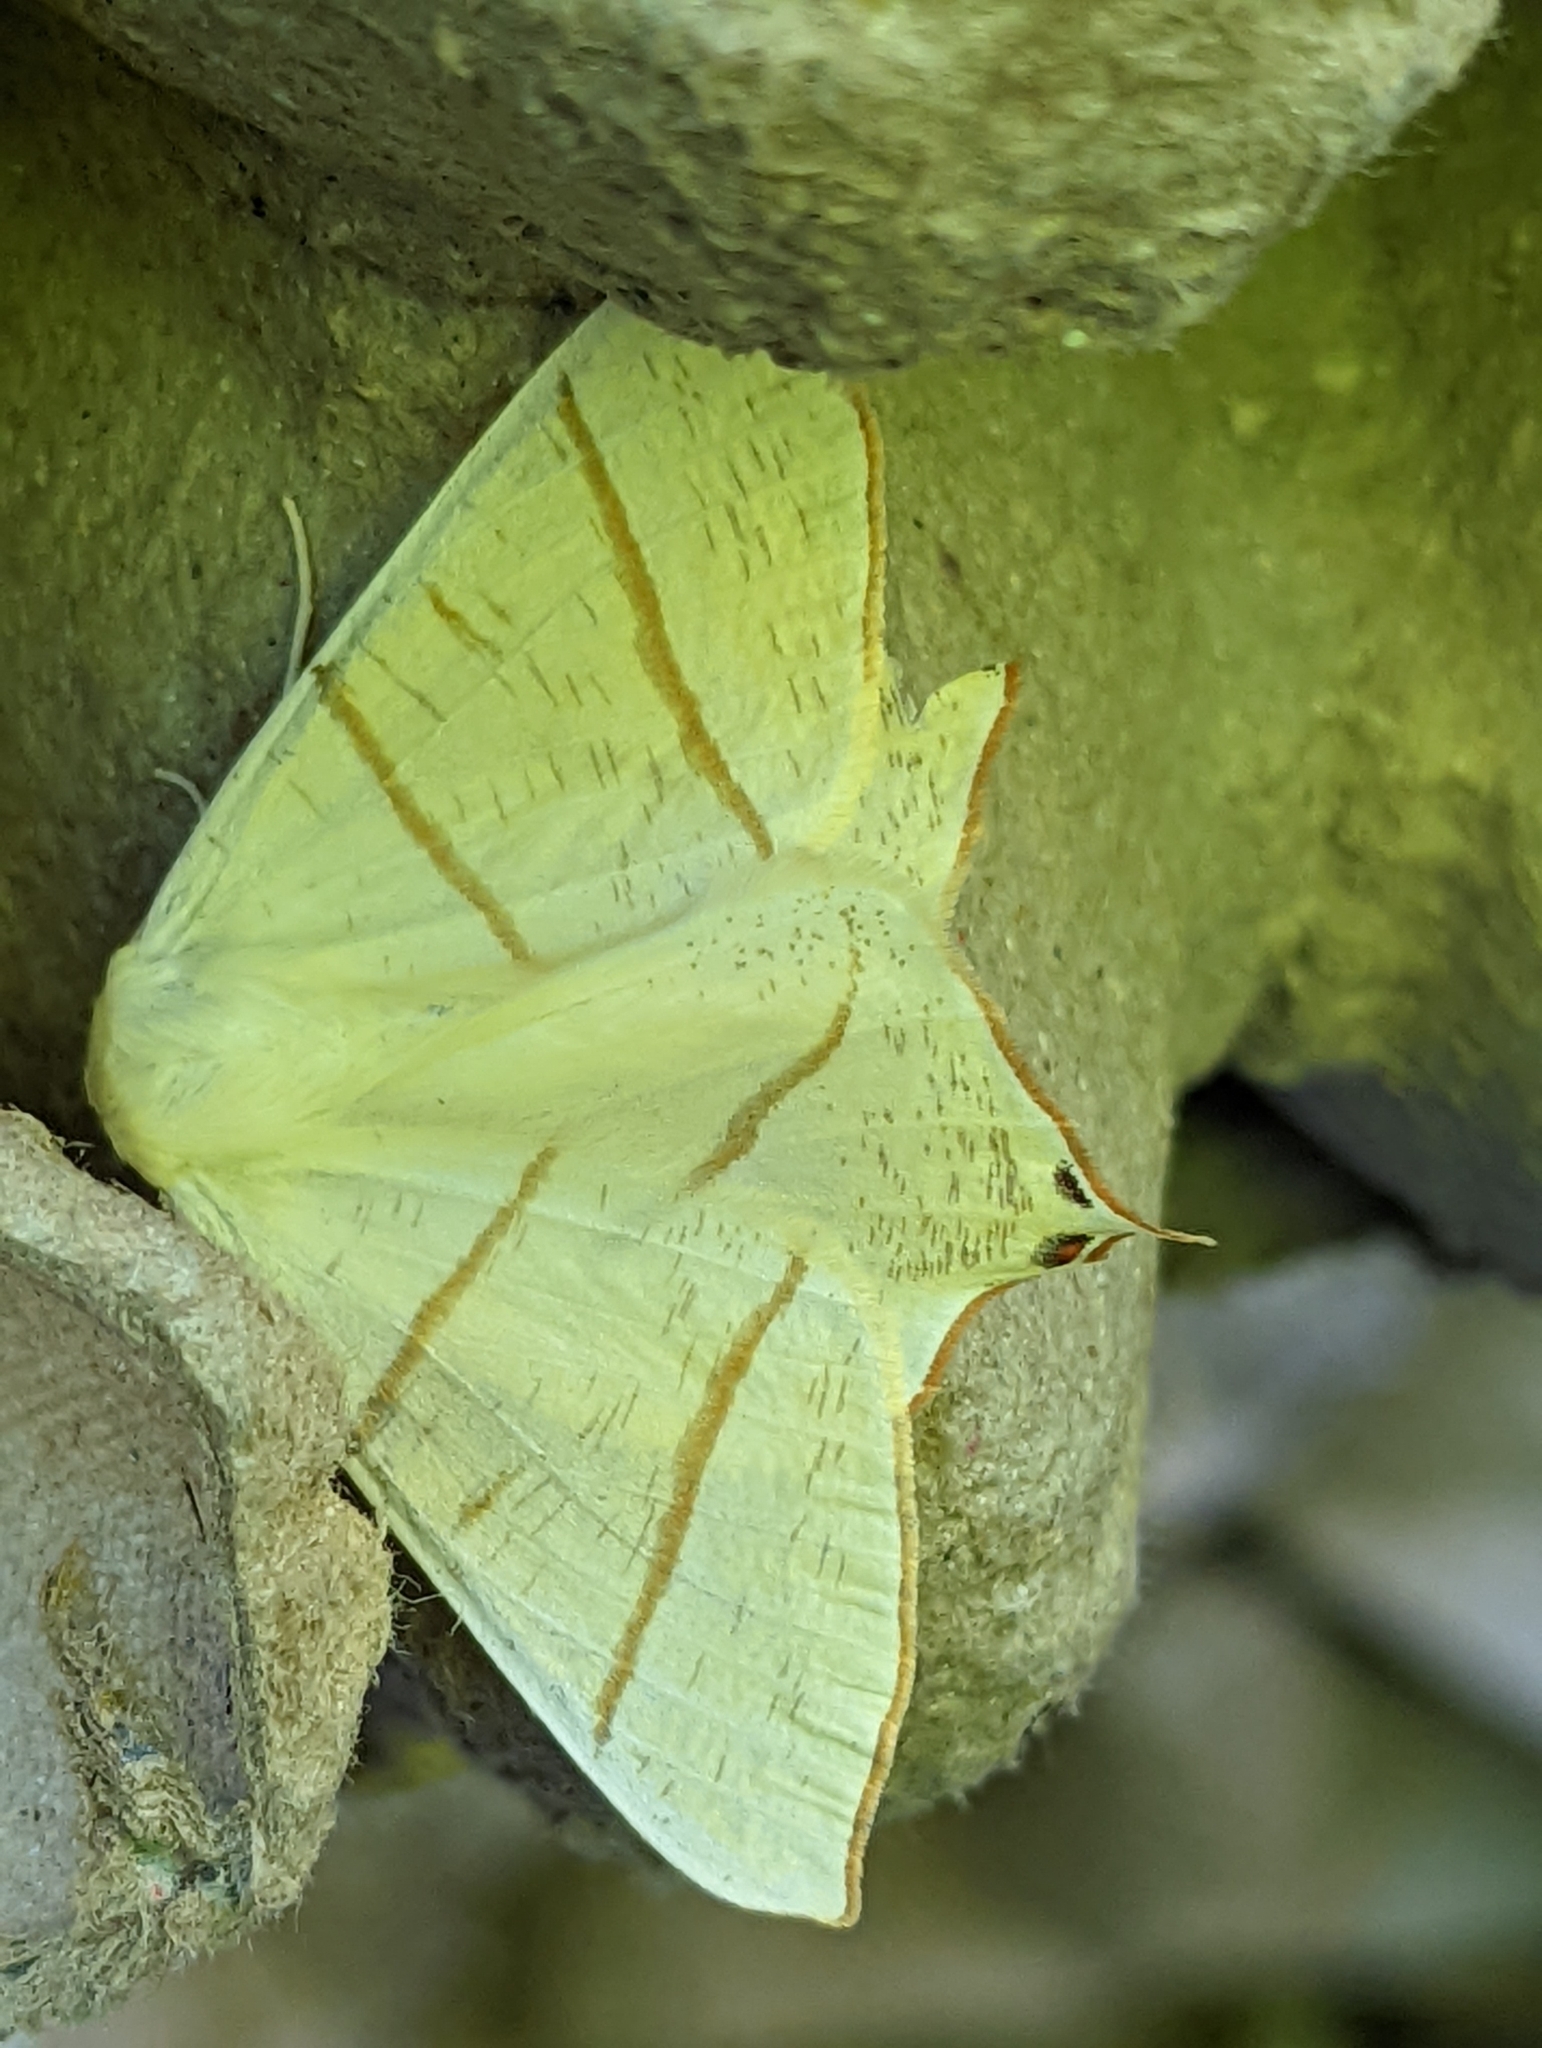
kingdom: Animalia
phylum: Arthropoda
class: Insecta
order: Lepidoptera
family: Geometridae
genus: Ourapteryx
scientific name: Ourapteryx sambucaria
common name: Swallow-tailed moth
